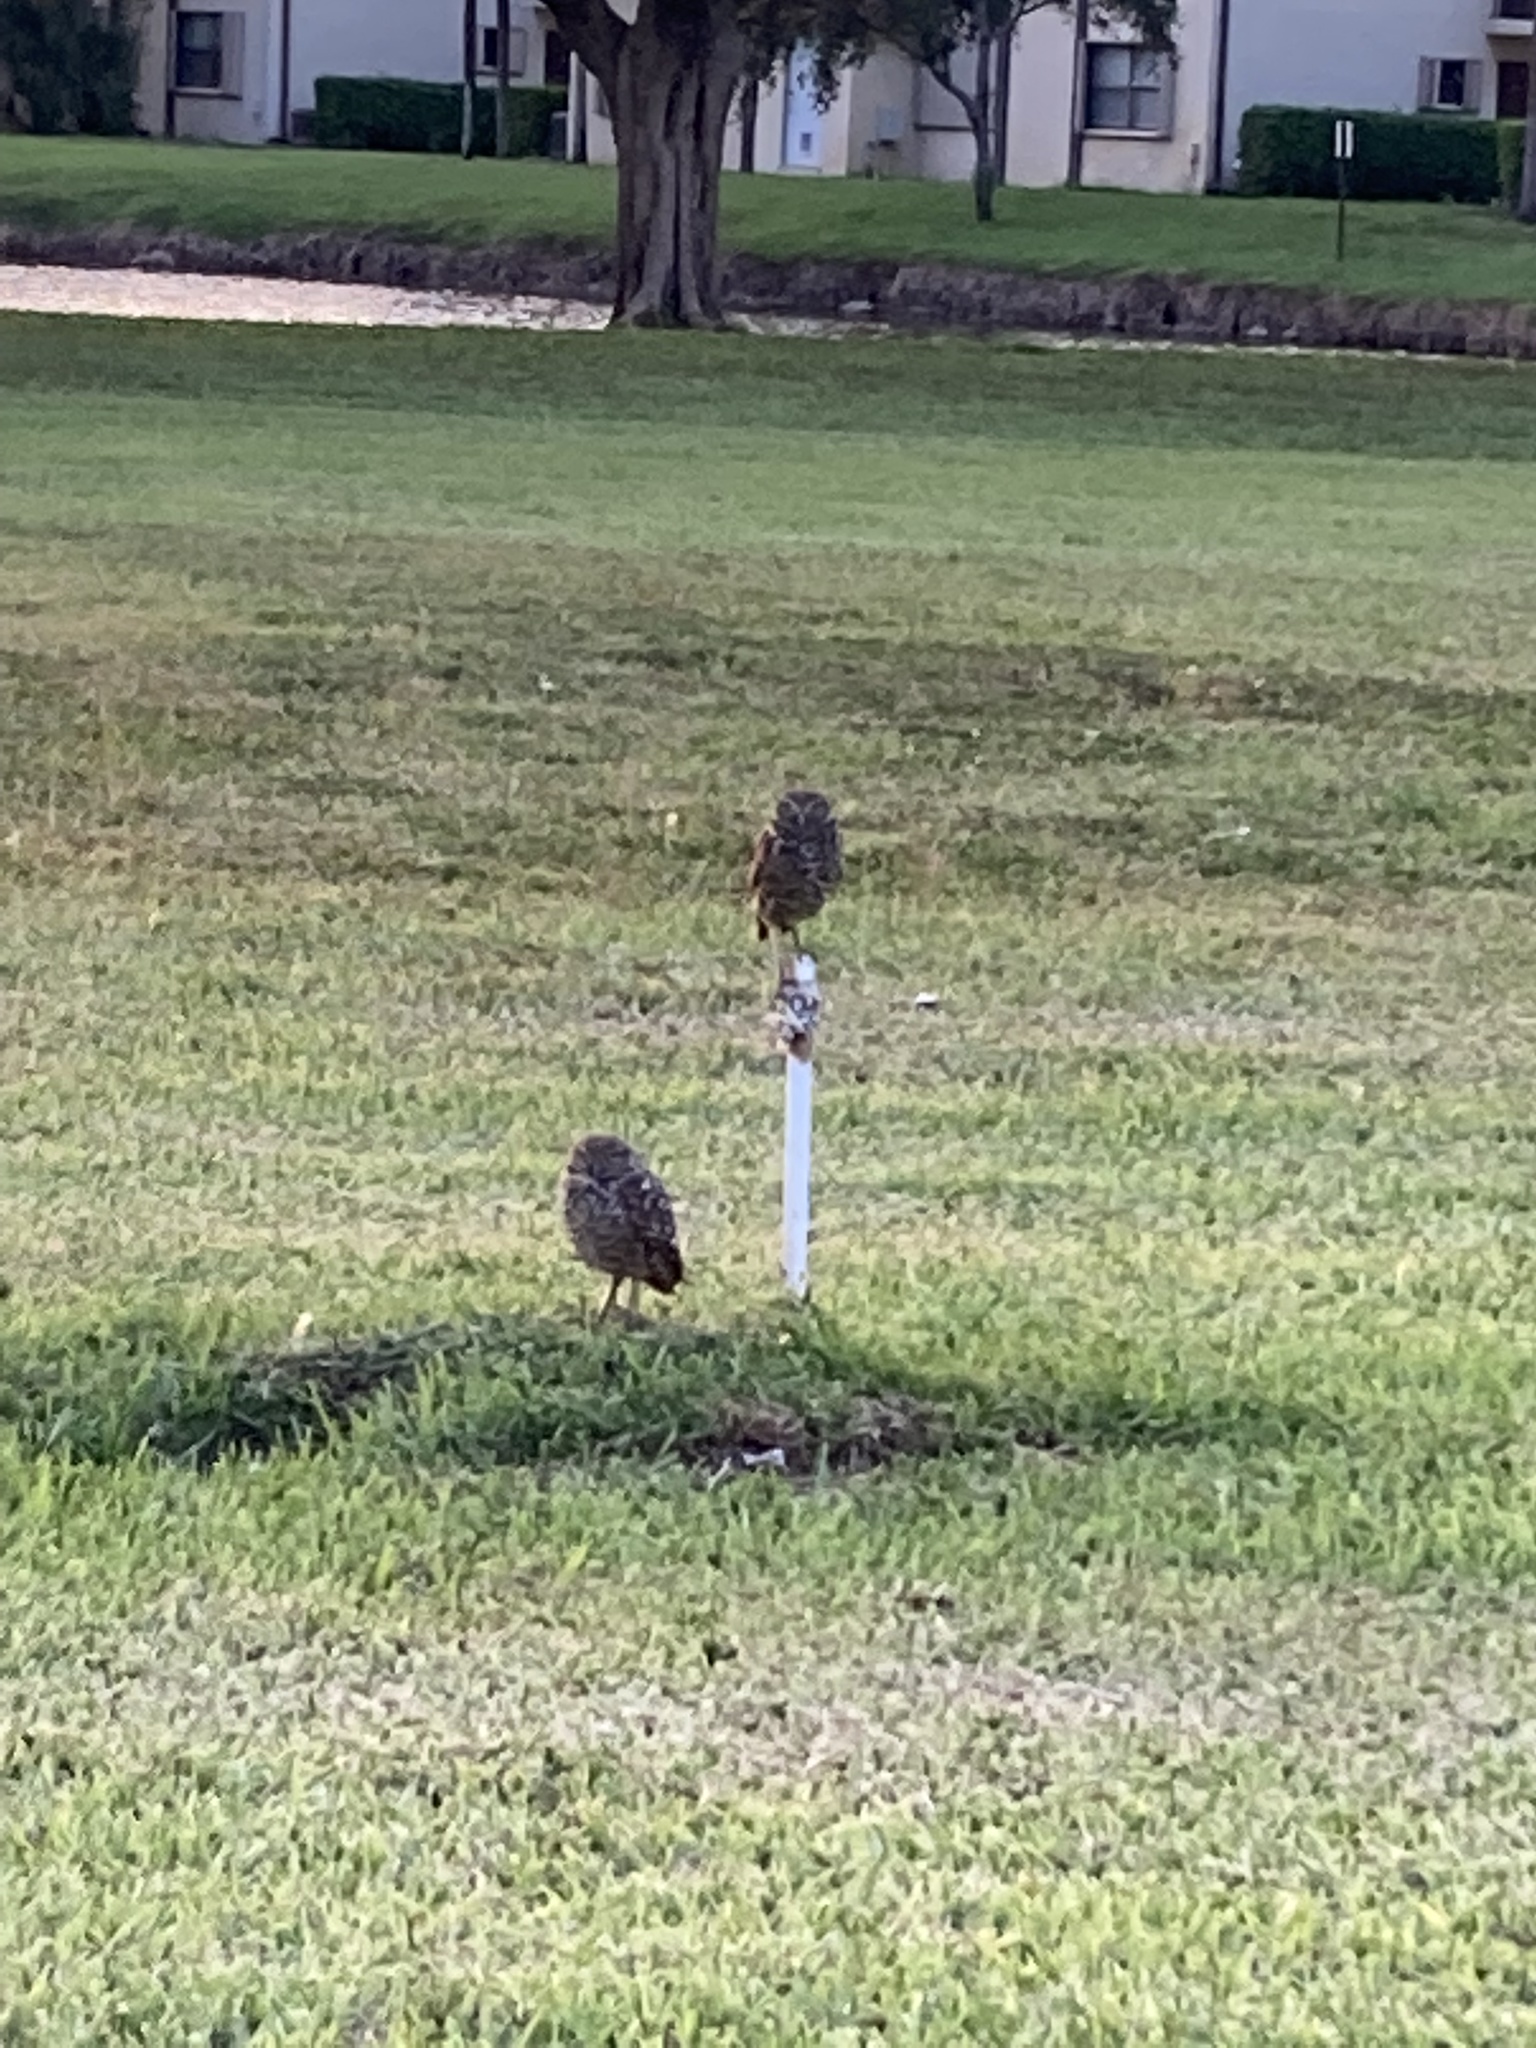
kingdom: Animalia
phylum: Chordata
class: Aves
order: Strigiformes
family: Strigidae
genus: Athene
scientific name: Athene cunicularia
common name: Burrowing owl
